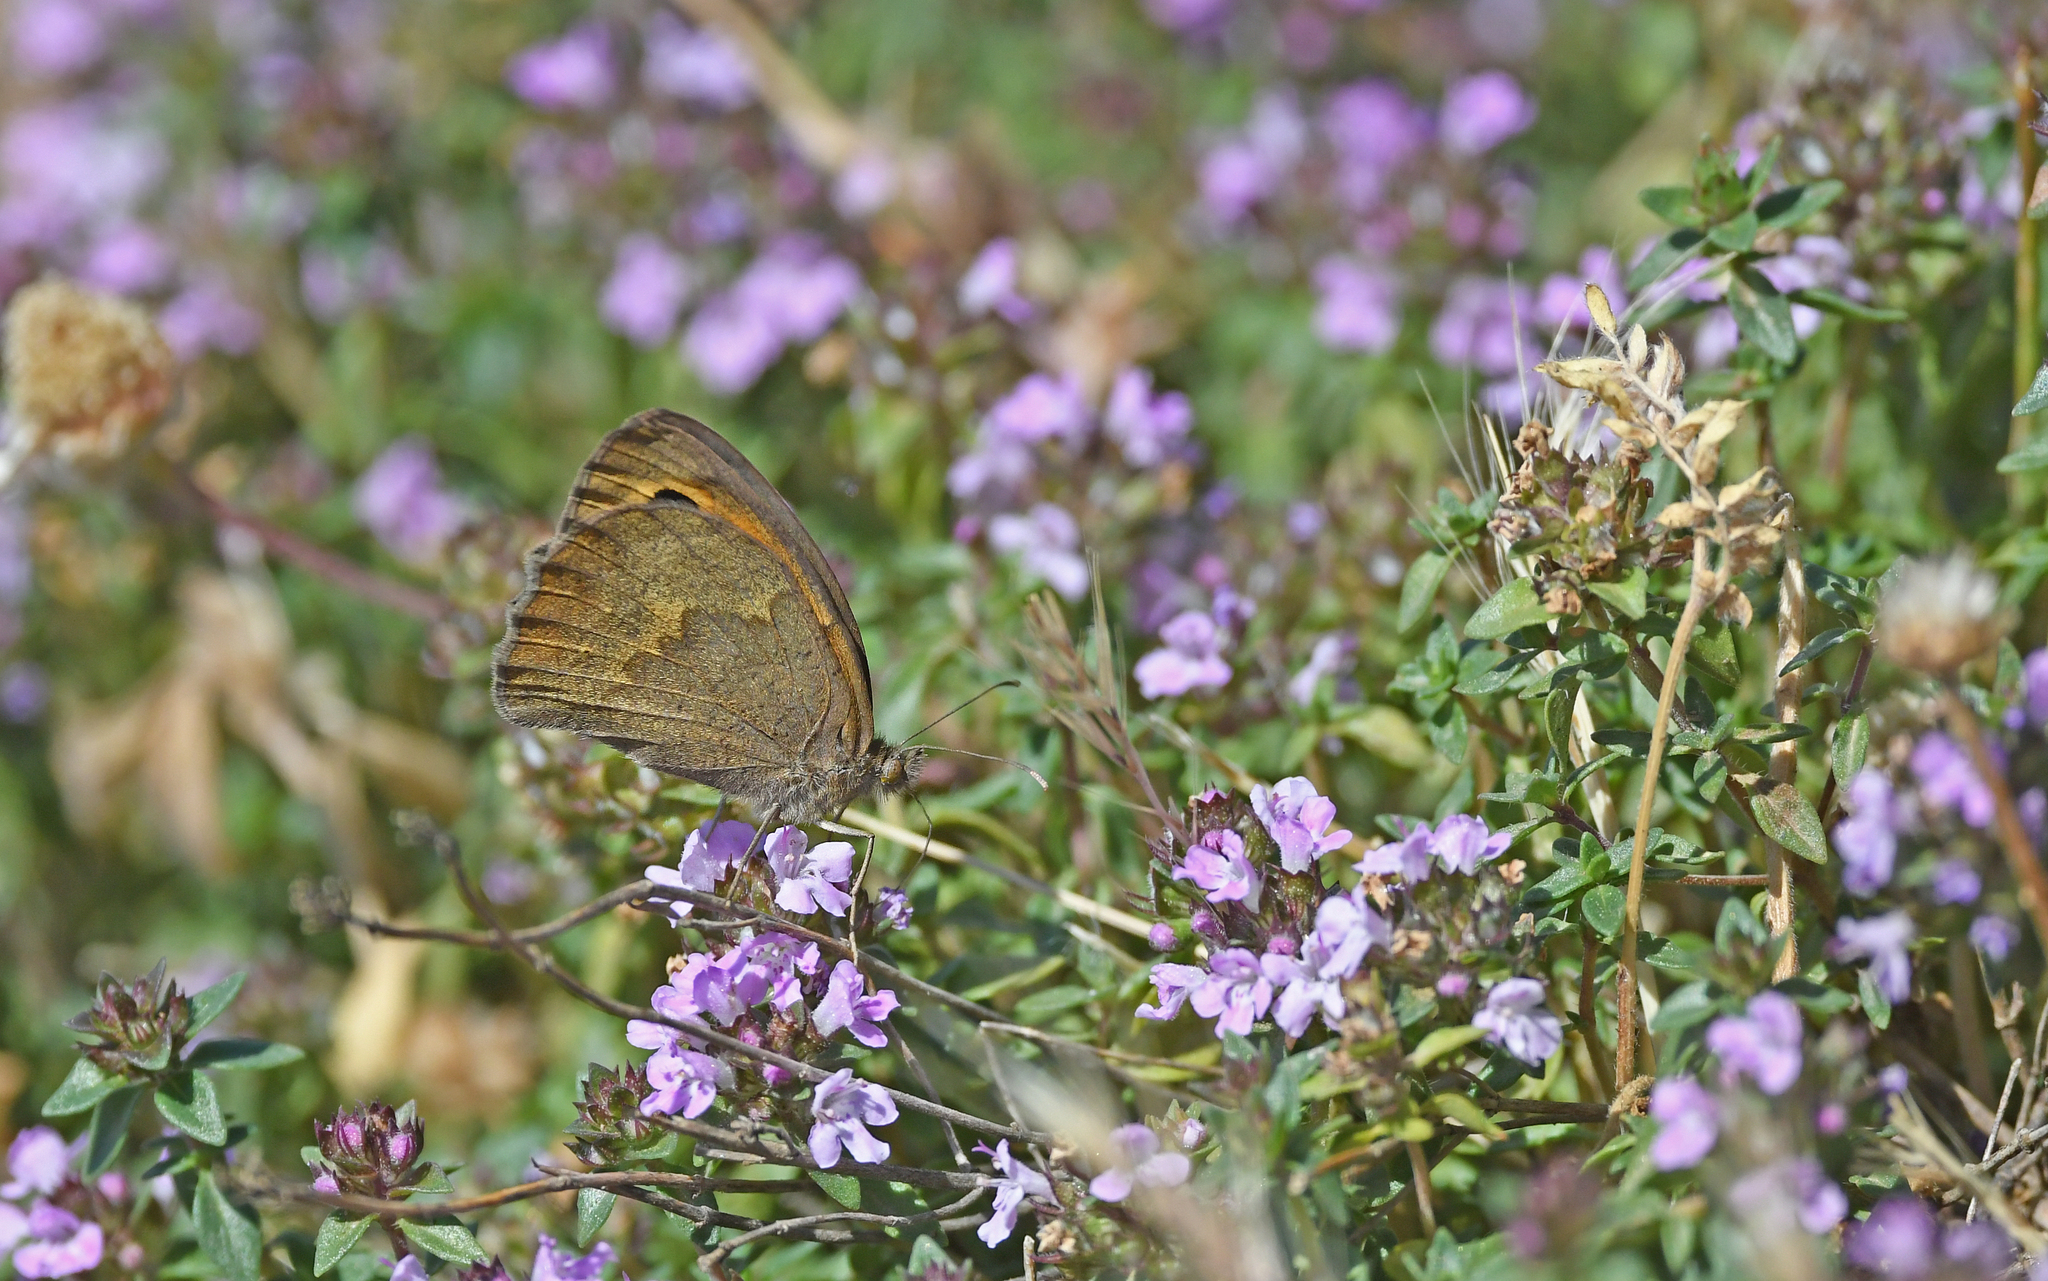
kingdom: Animalia
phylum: Arthropoda
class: Insecta
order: Lepidoptera
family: Nymphalidae
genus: Maniola
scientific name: Maniola nurag
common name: Sardinian meadow brown
